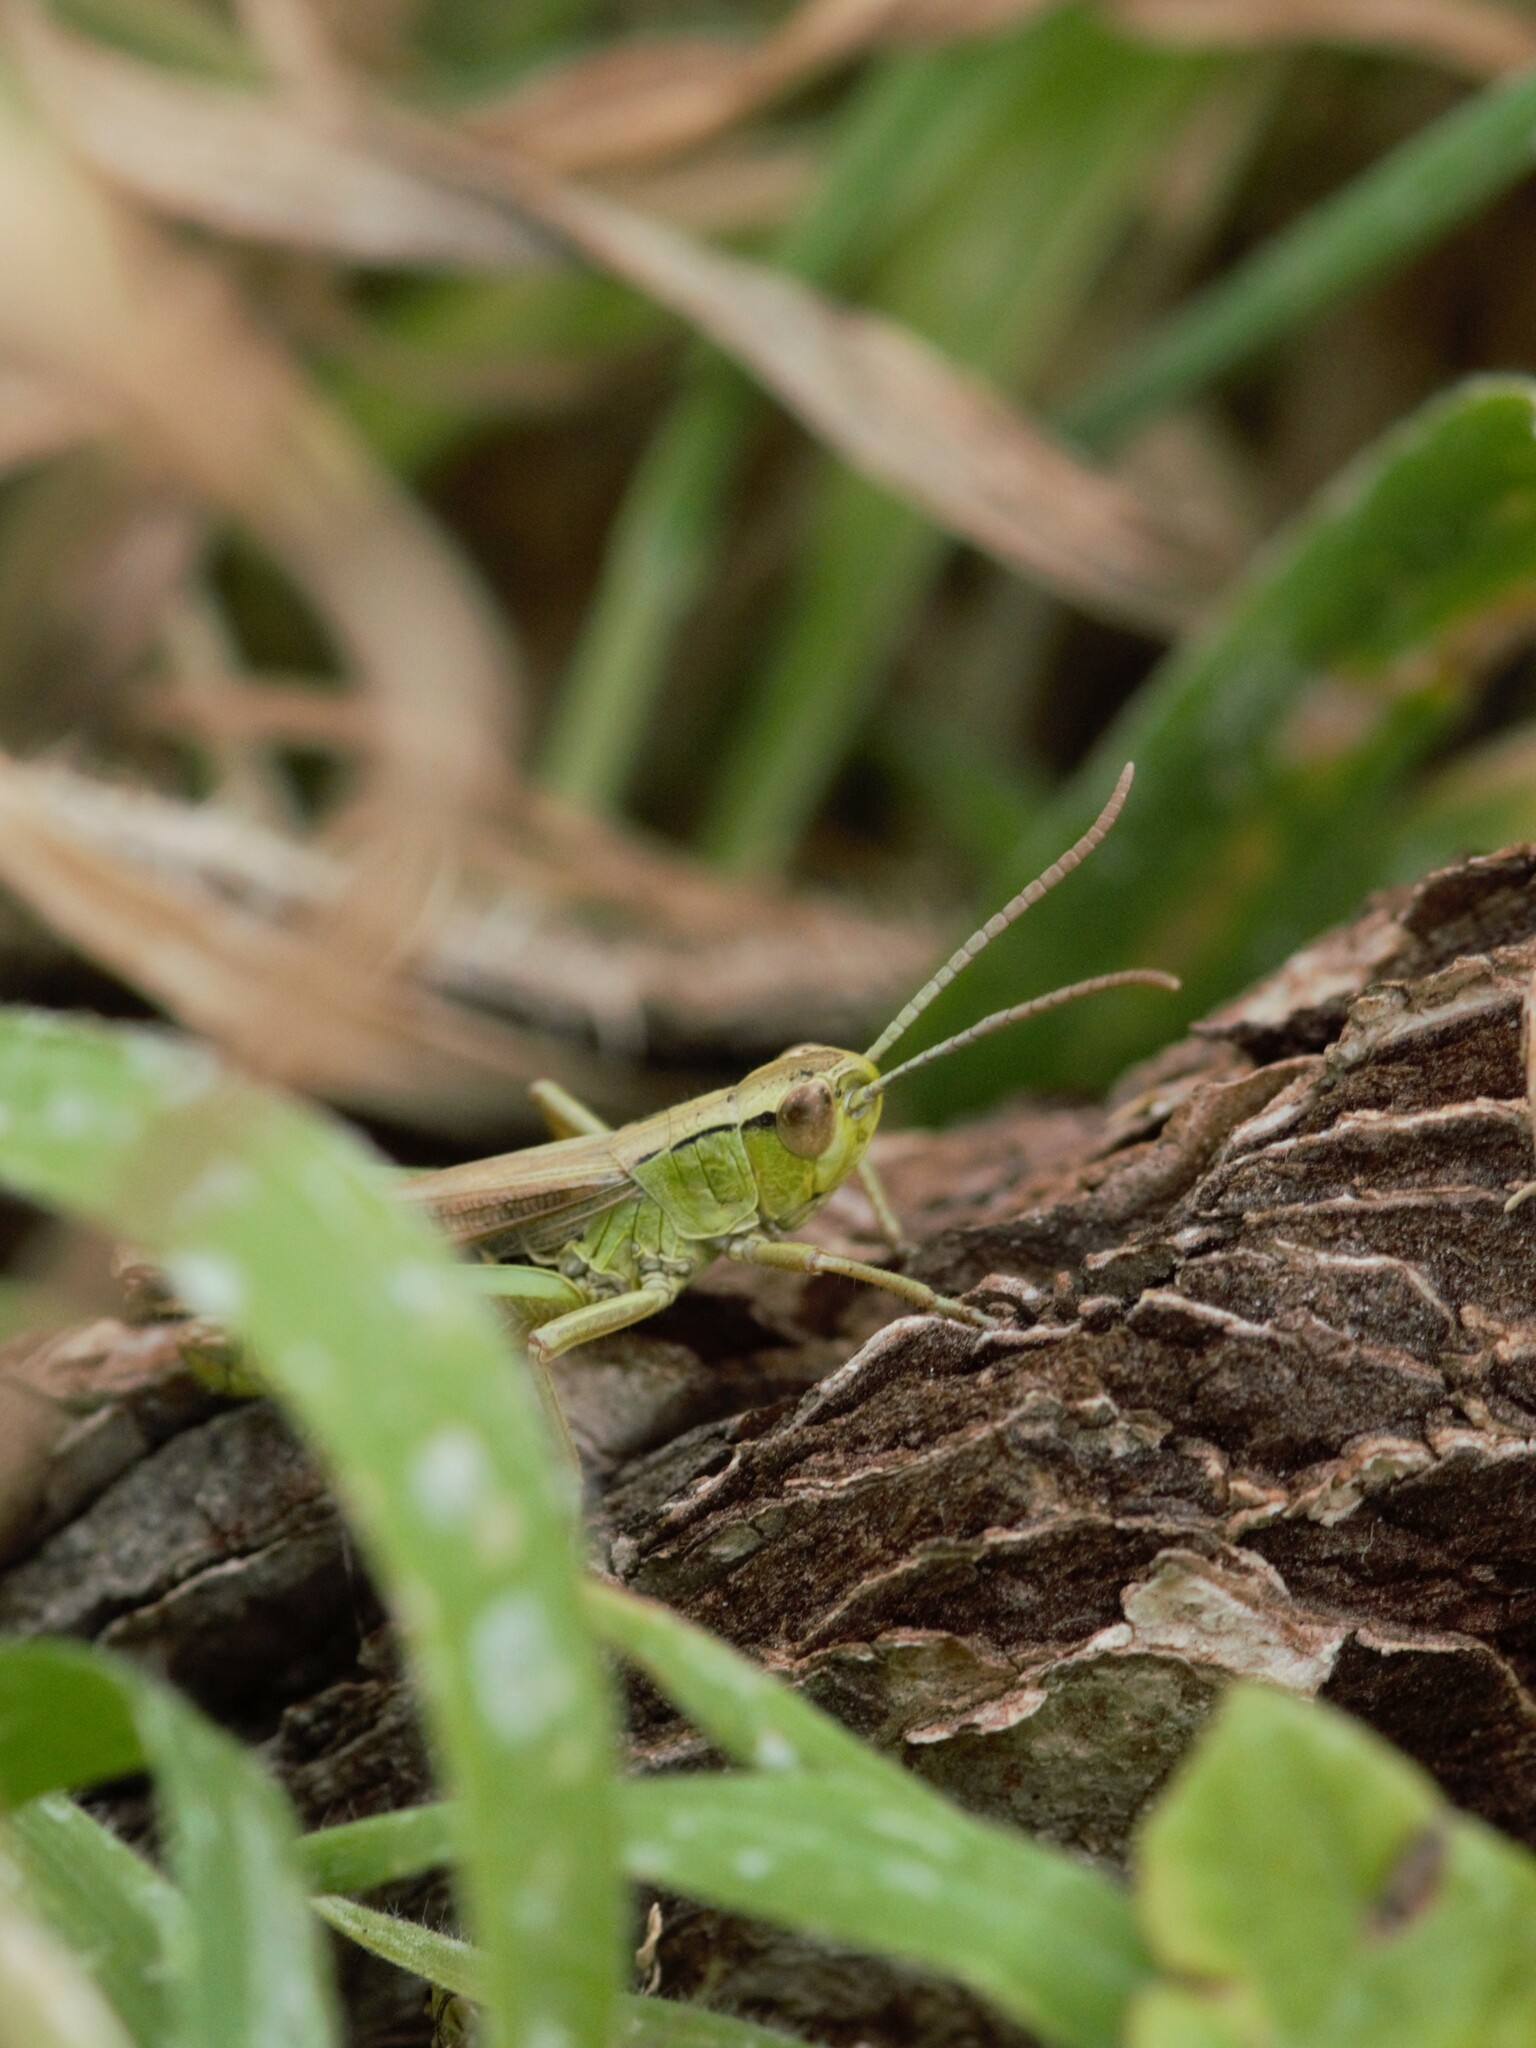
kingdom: Animalia
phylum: Arthropoda
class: Insecta
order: Orthoptera
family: Acrididae
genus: Pseudochorthippus
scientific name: Pseudochorthippus parallelus
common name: Meadow grasshopper
